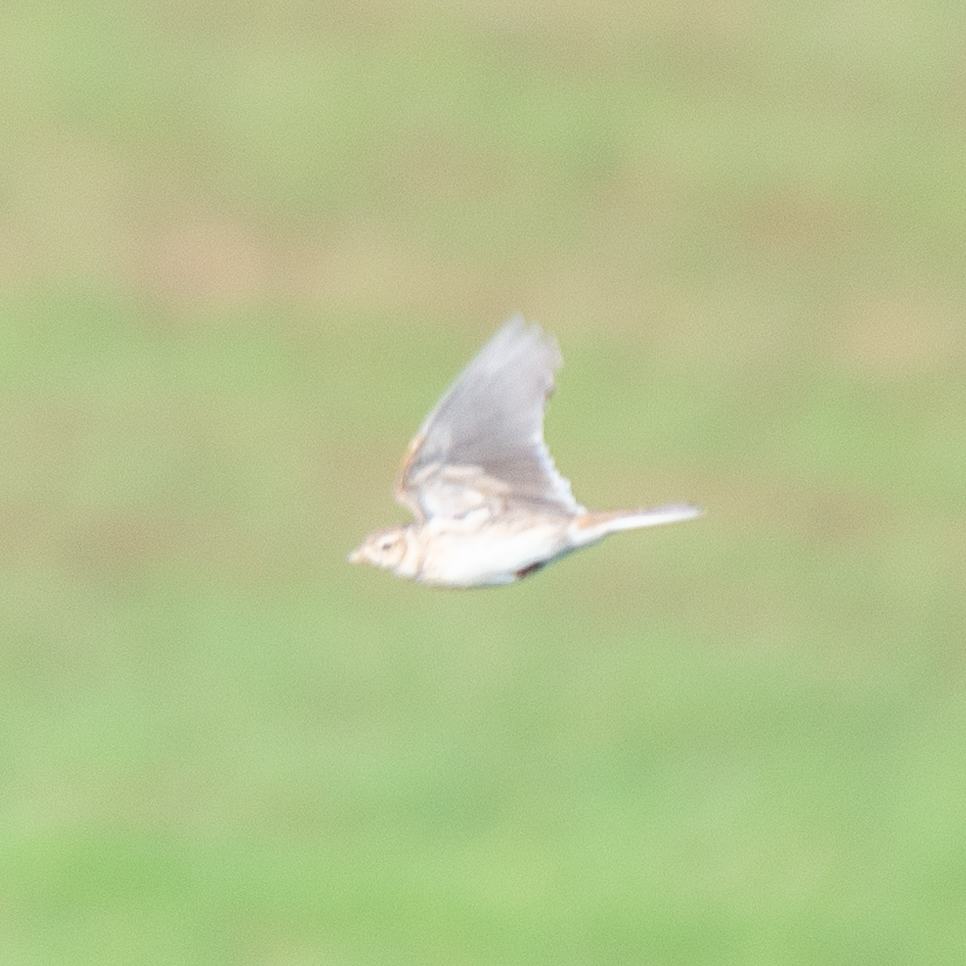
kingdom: Animalia
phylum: Chordata
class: Aves
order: Passeriformes
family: Alaudidae
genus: Alauda
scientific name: Alauda arvensis
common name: Eurasian skylark
